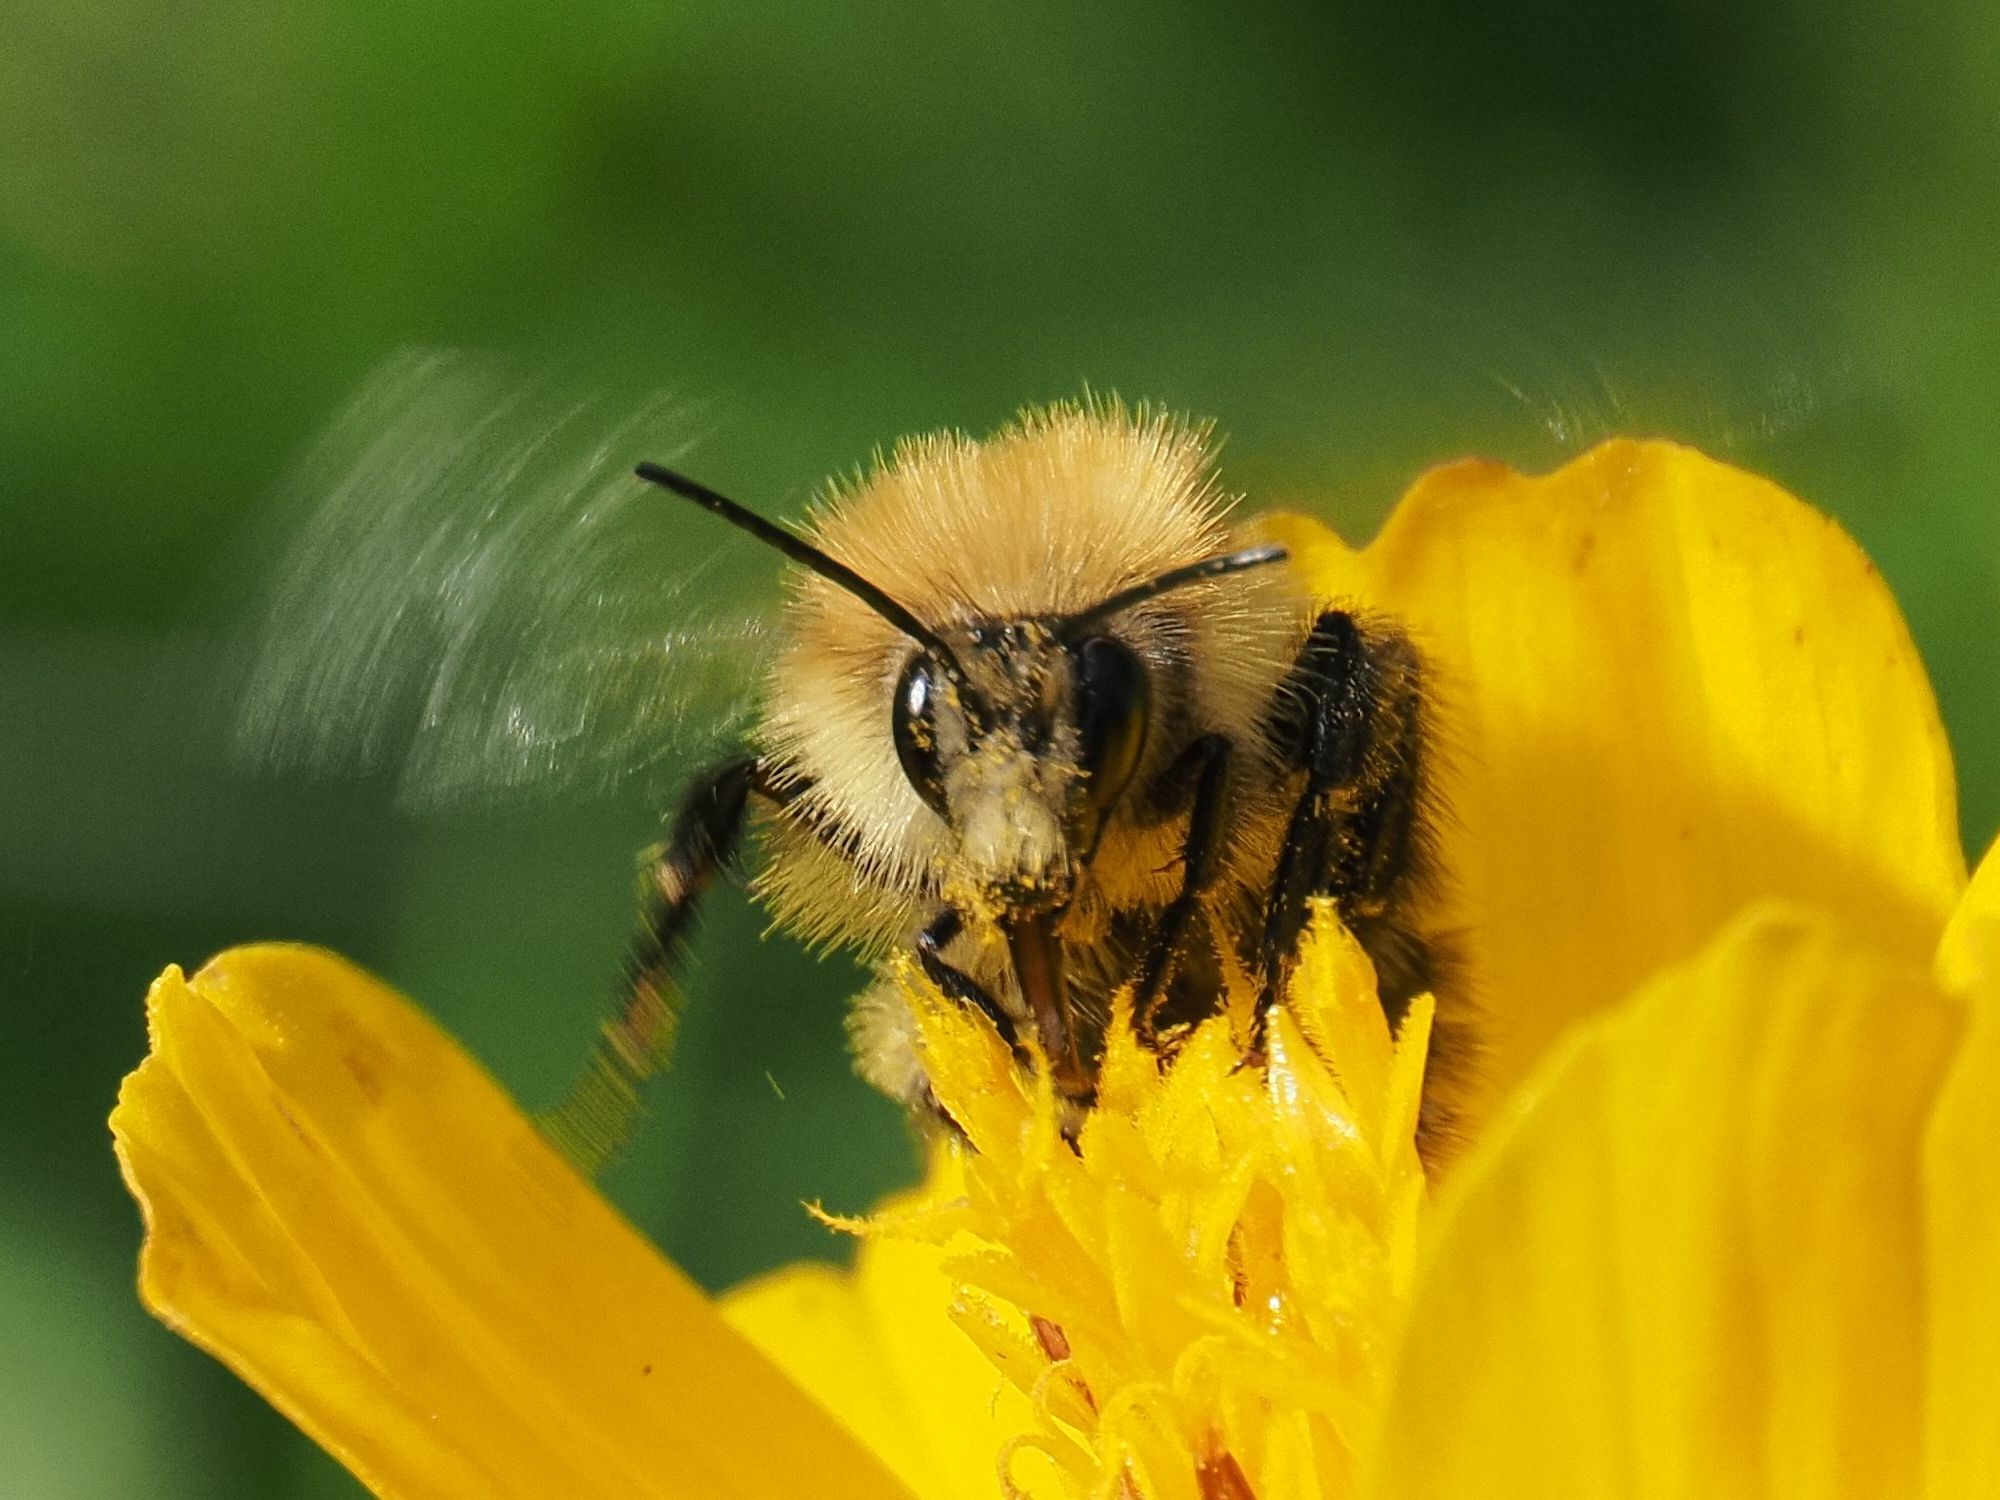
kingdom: Animalia
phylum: Arthropoda
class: Insecta
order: Hymenoptera
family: Apidae
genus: Bombus
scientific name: Bombus pascuorum
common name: Common carder bee
